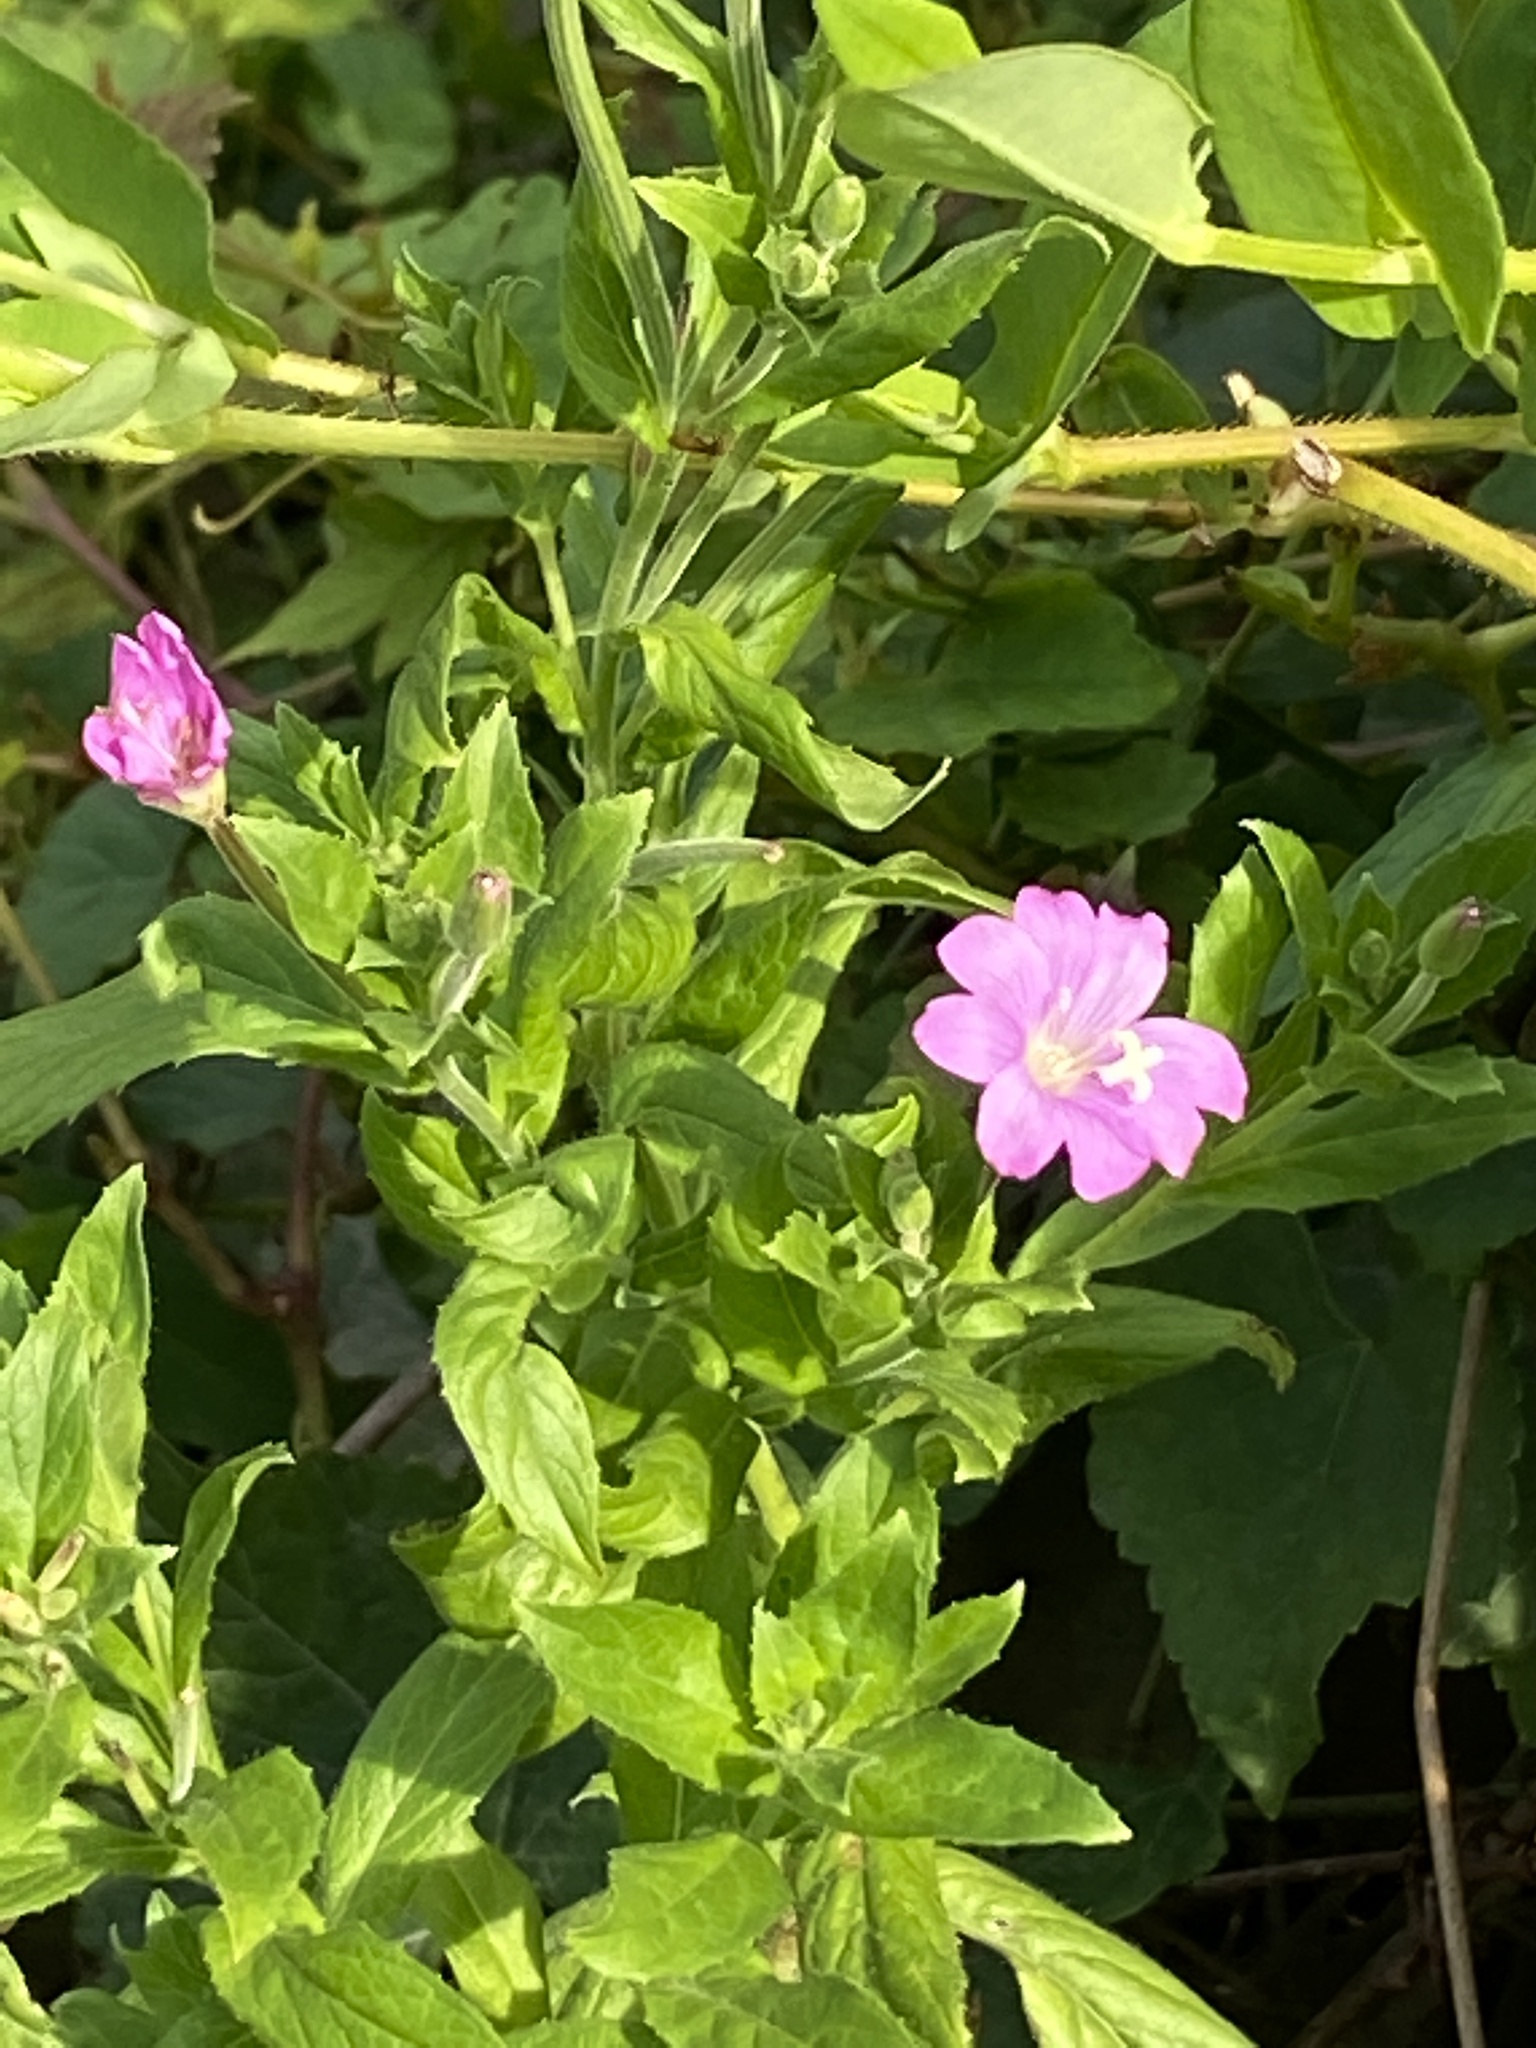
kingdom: Plantae
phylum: Tracheophyta
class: Magnoliopsida
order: Myrtales
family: Onagraceae
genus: Epilobium
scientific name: Epilobium hirsutum
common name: Great willowherb
